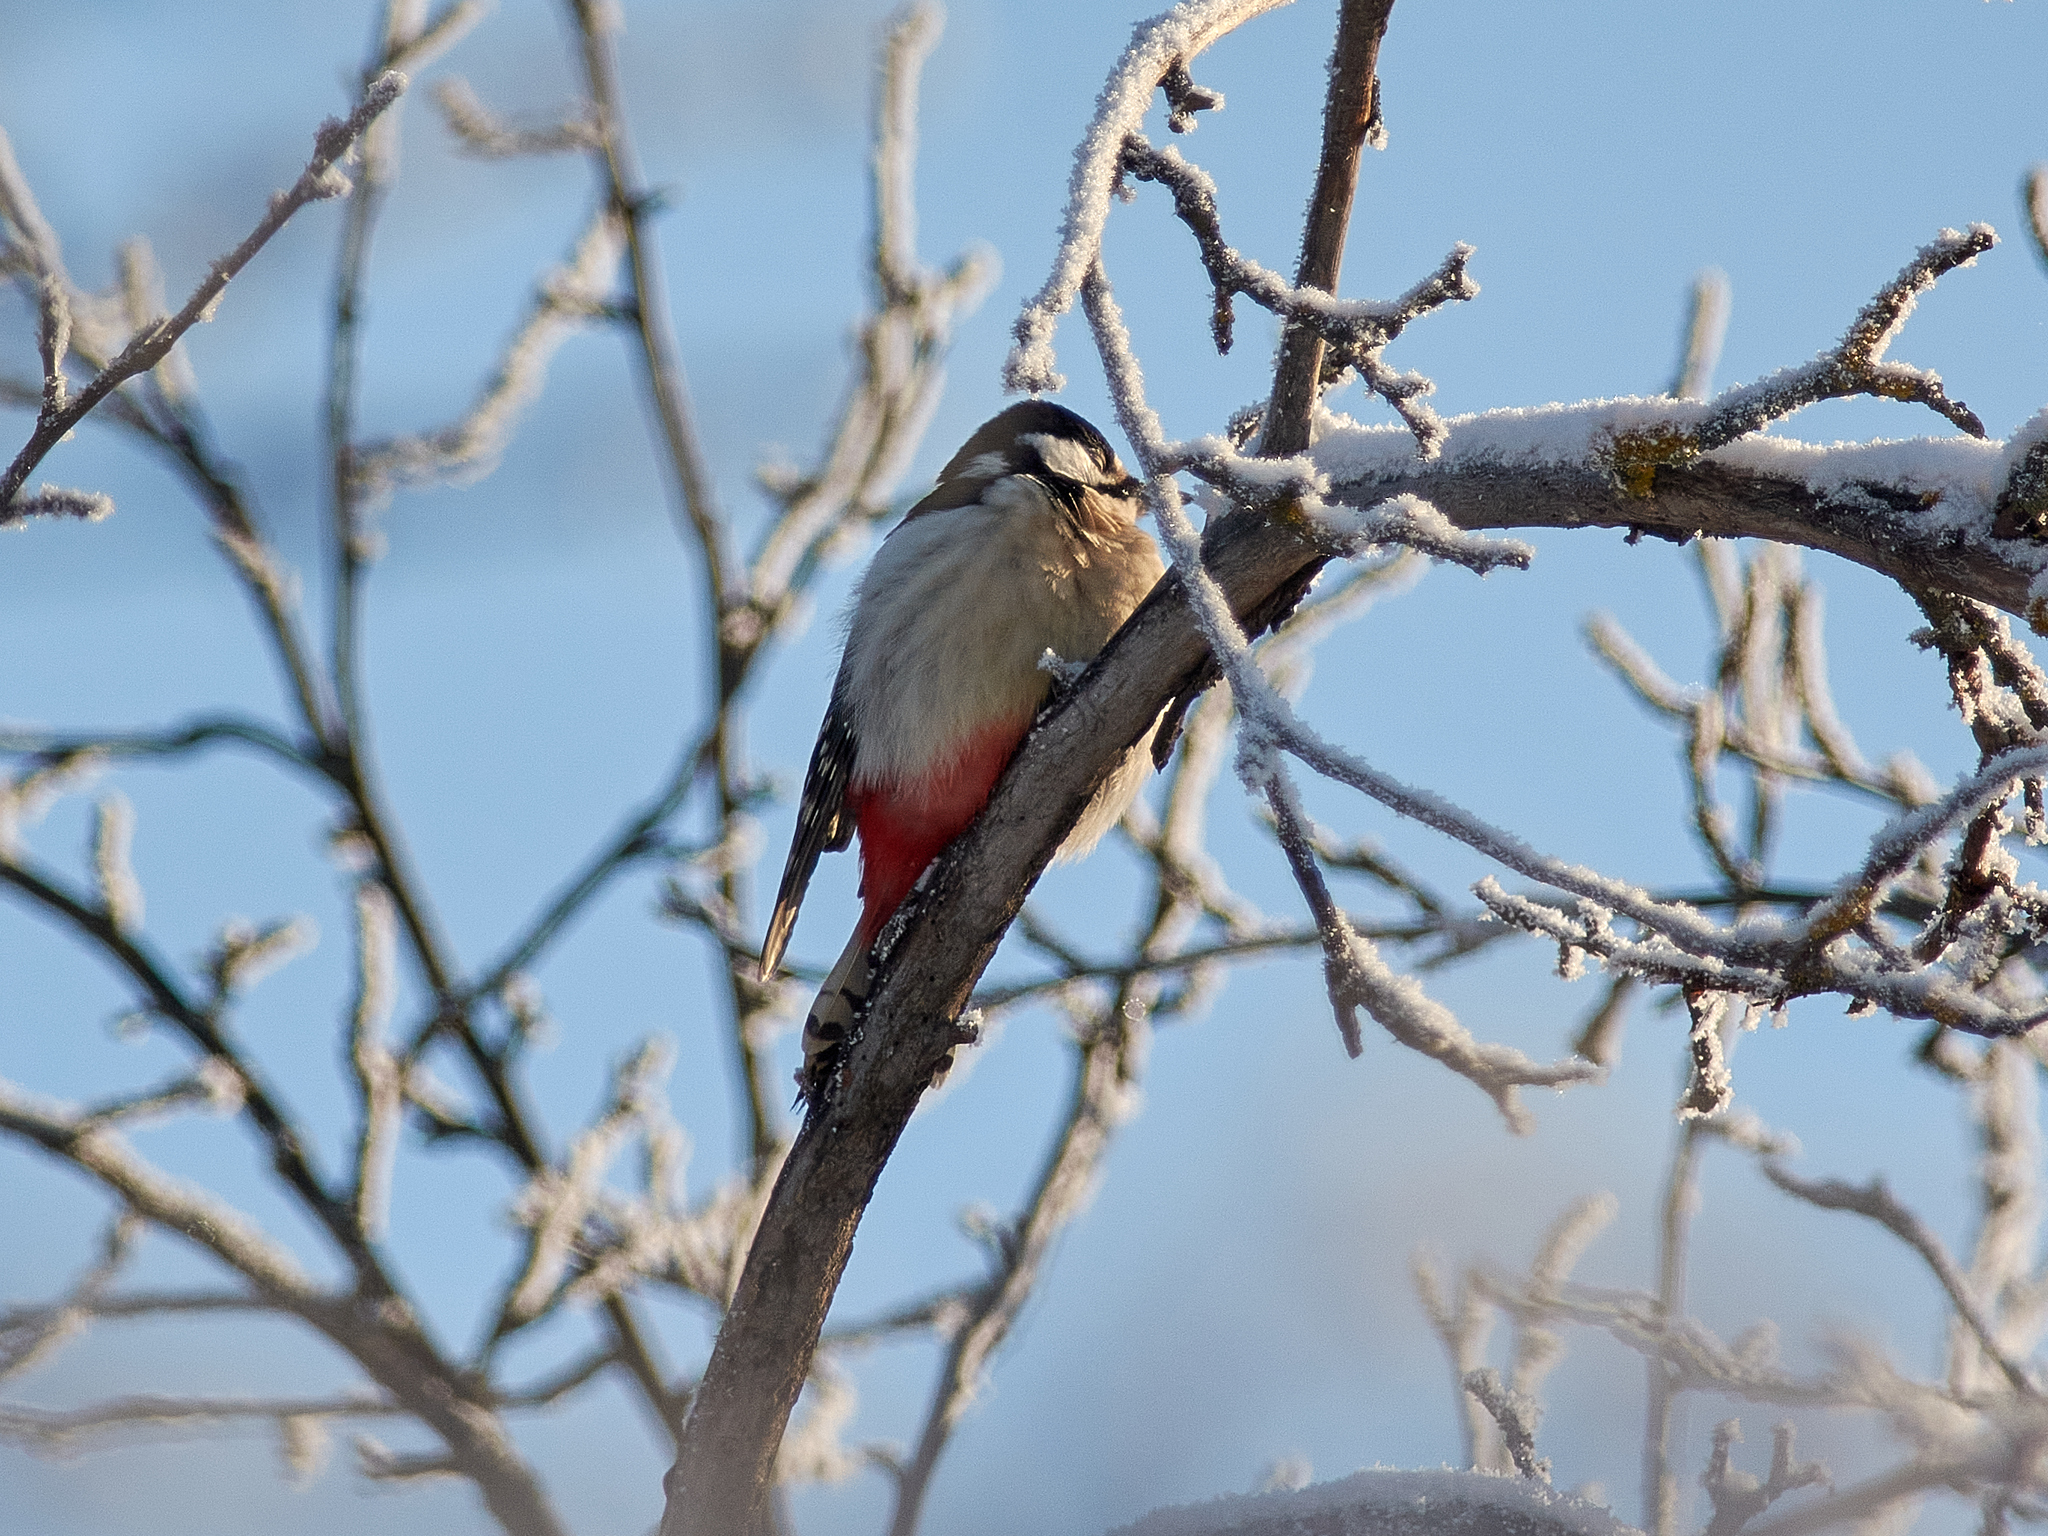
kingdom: Animalia
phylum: Chordata
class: Aves
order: Piciformes
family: Picidae
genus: Dendrocopos
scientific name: Dendrocopos major
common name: Great spotted woodpecker
